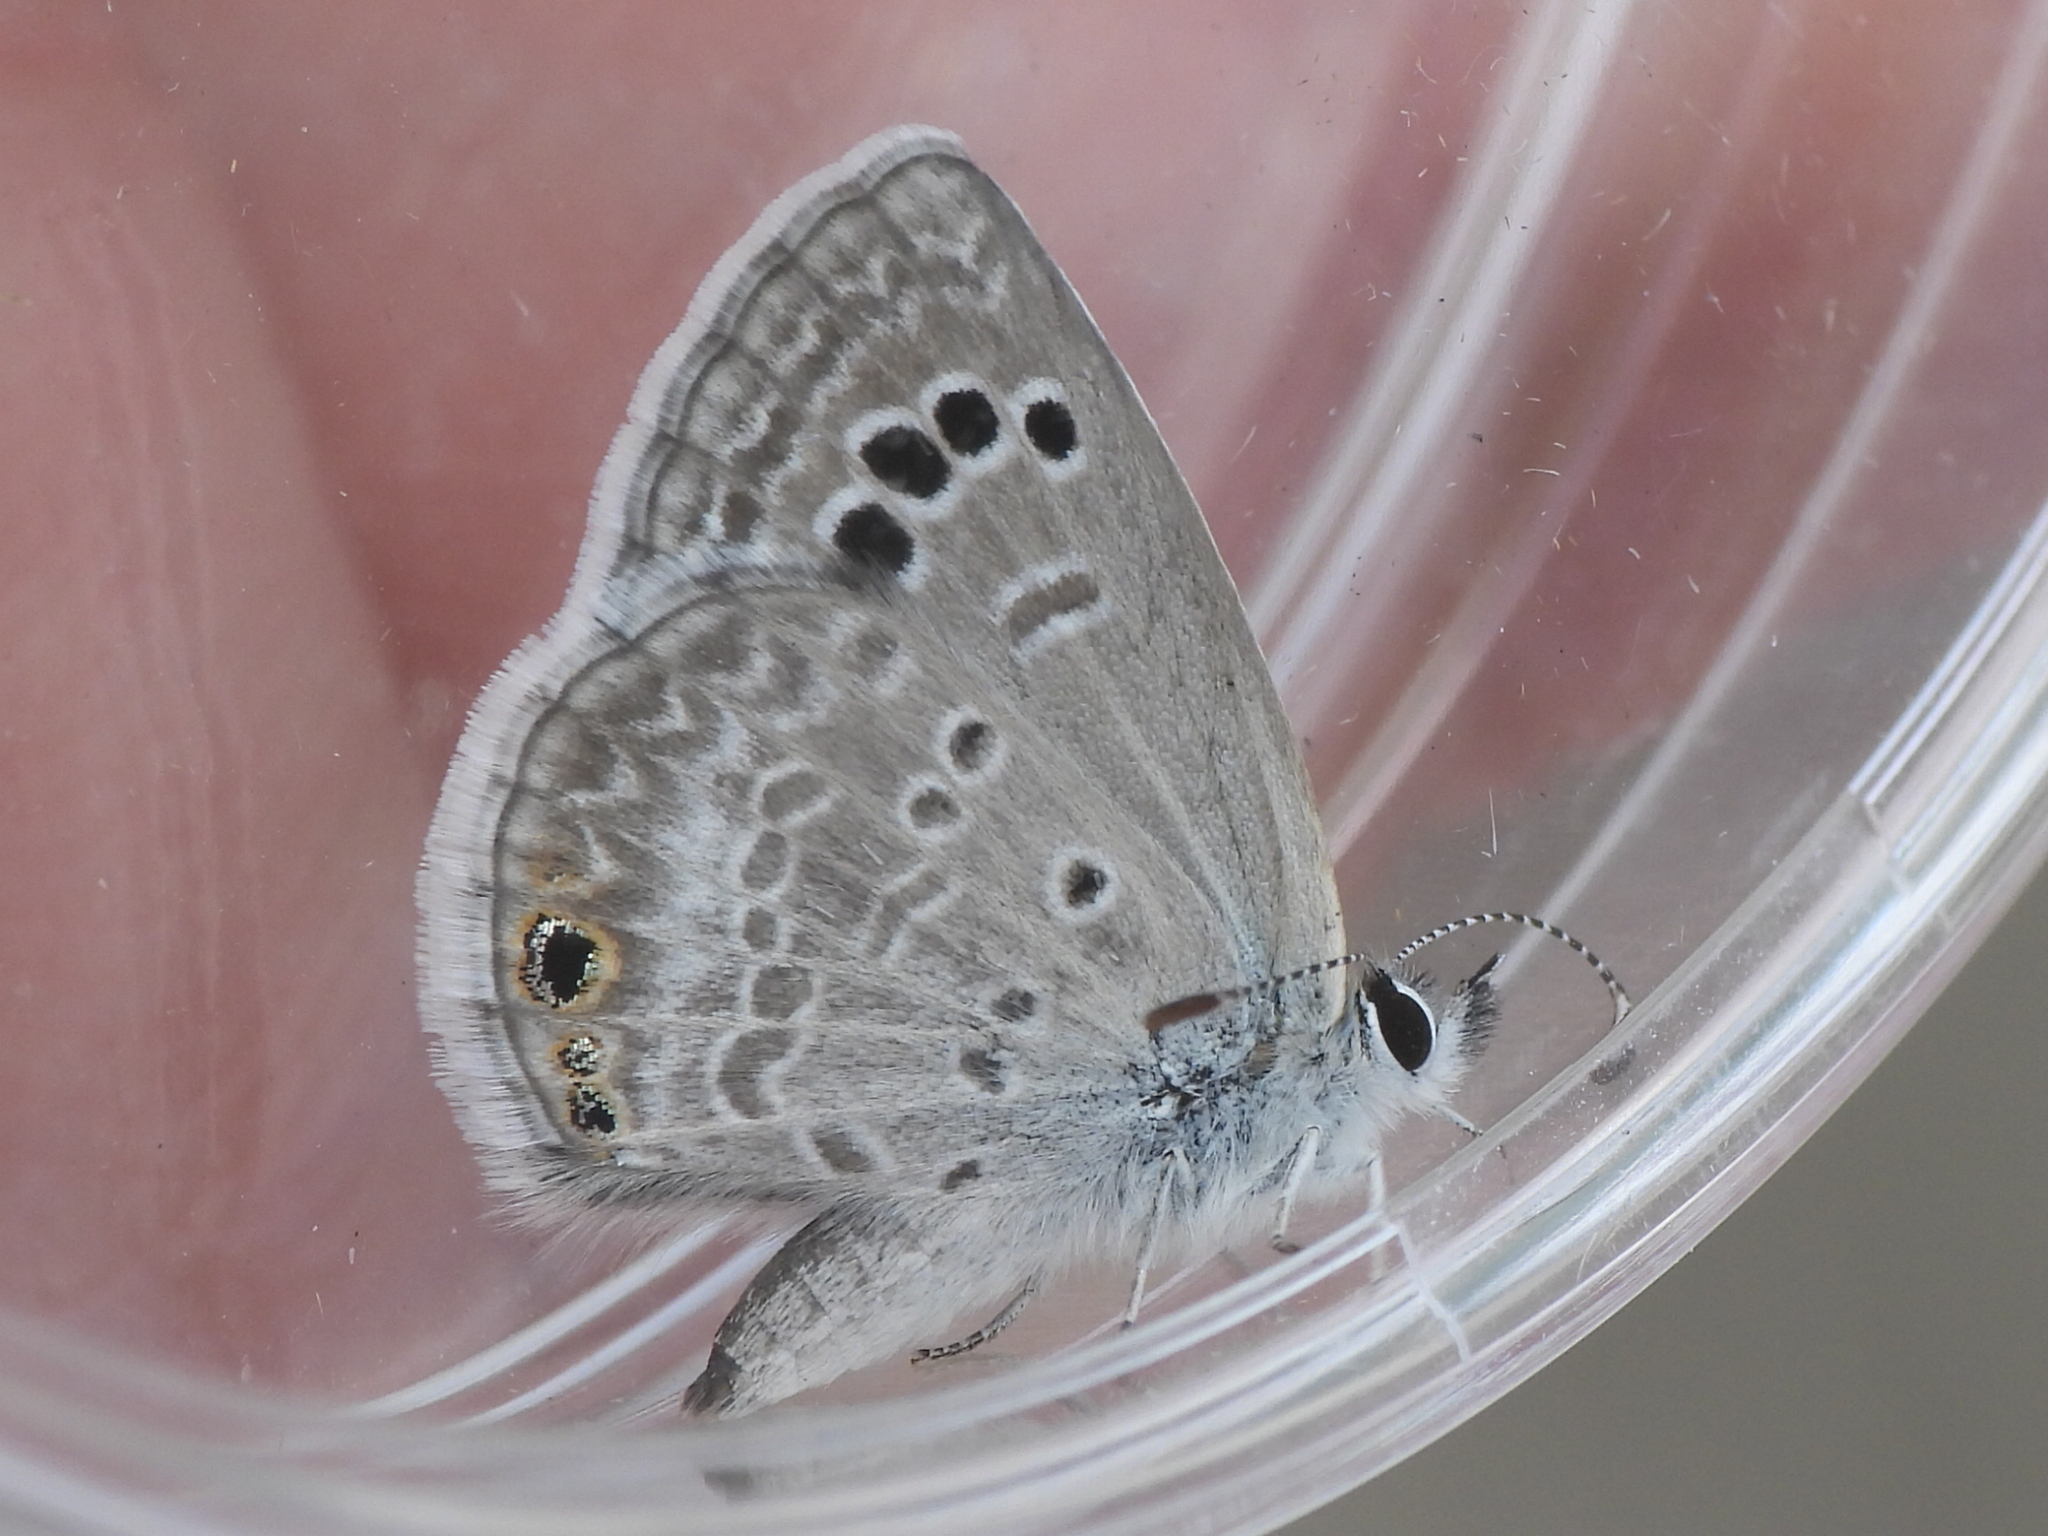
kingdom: Animalia
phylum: Arthropoda
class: Insecta
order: Lepidoptera
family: Lycaenidae
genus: Echinargus
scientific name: Echinargus isola
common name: Reakirt's blue
